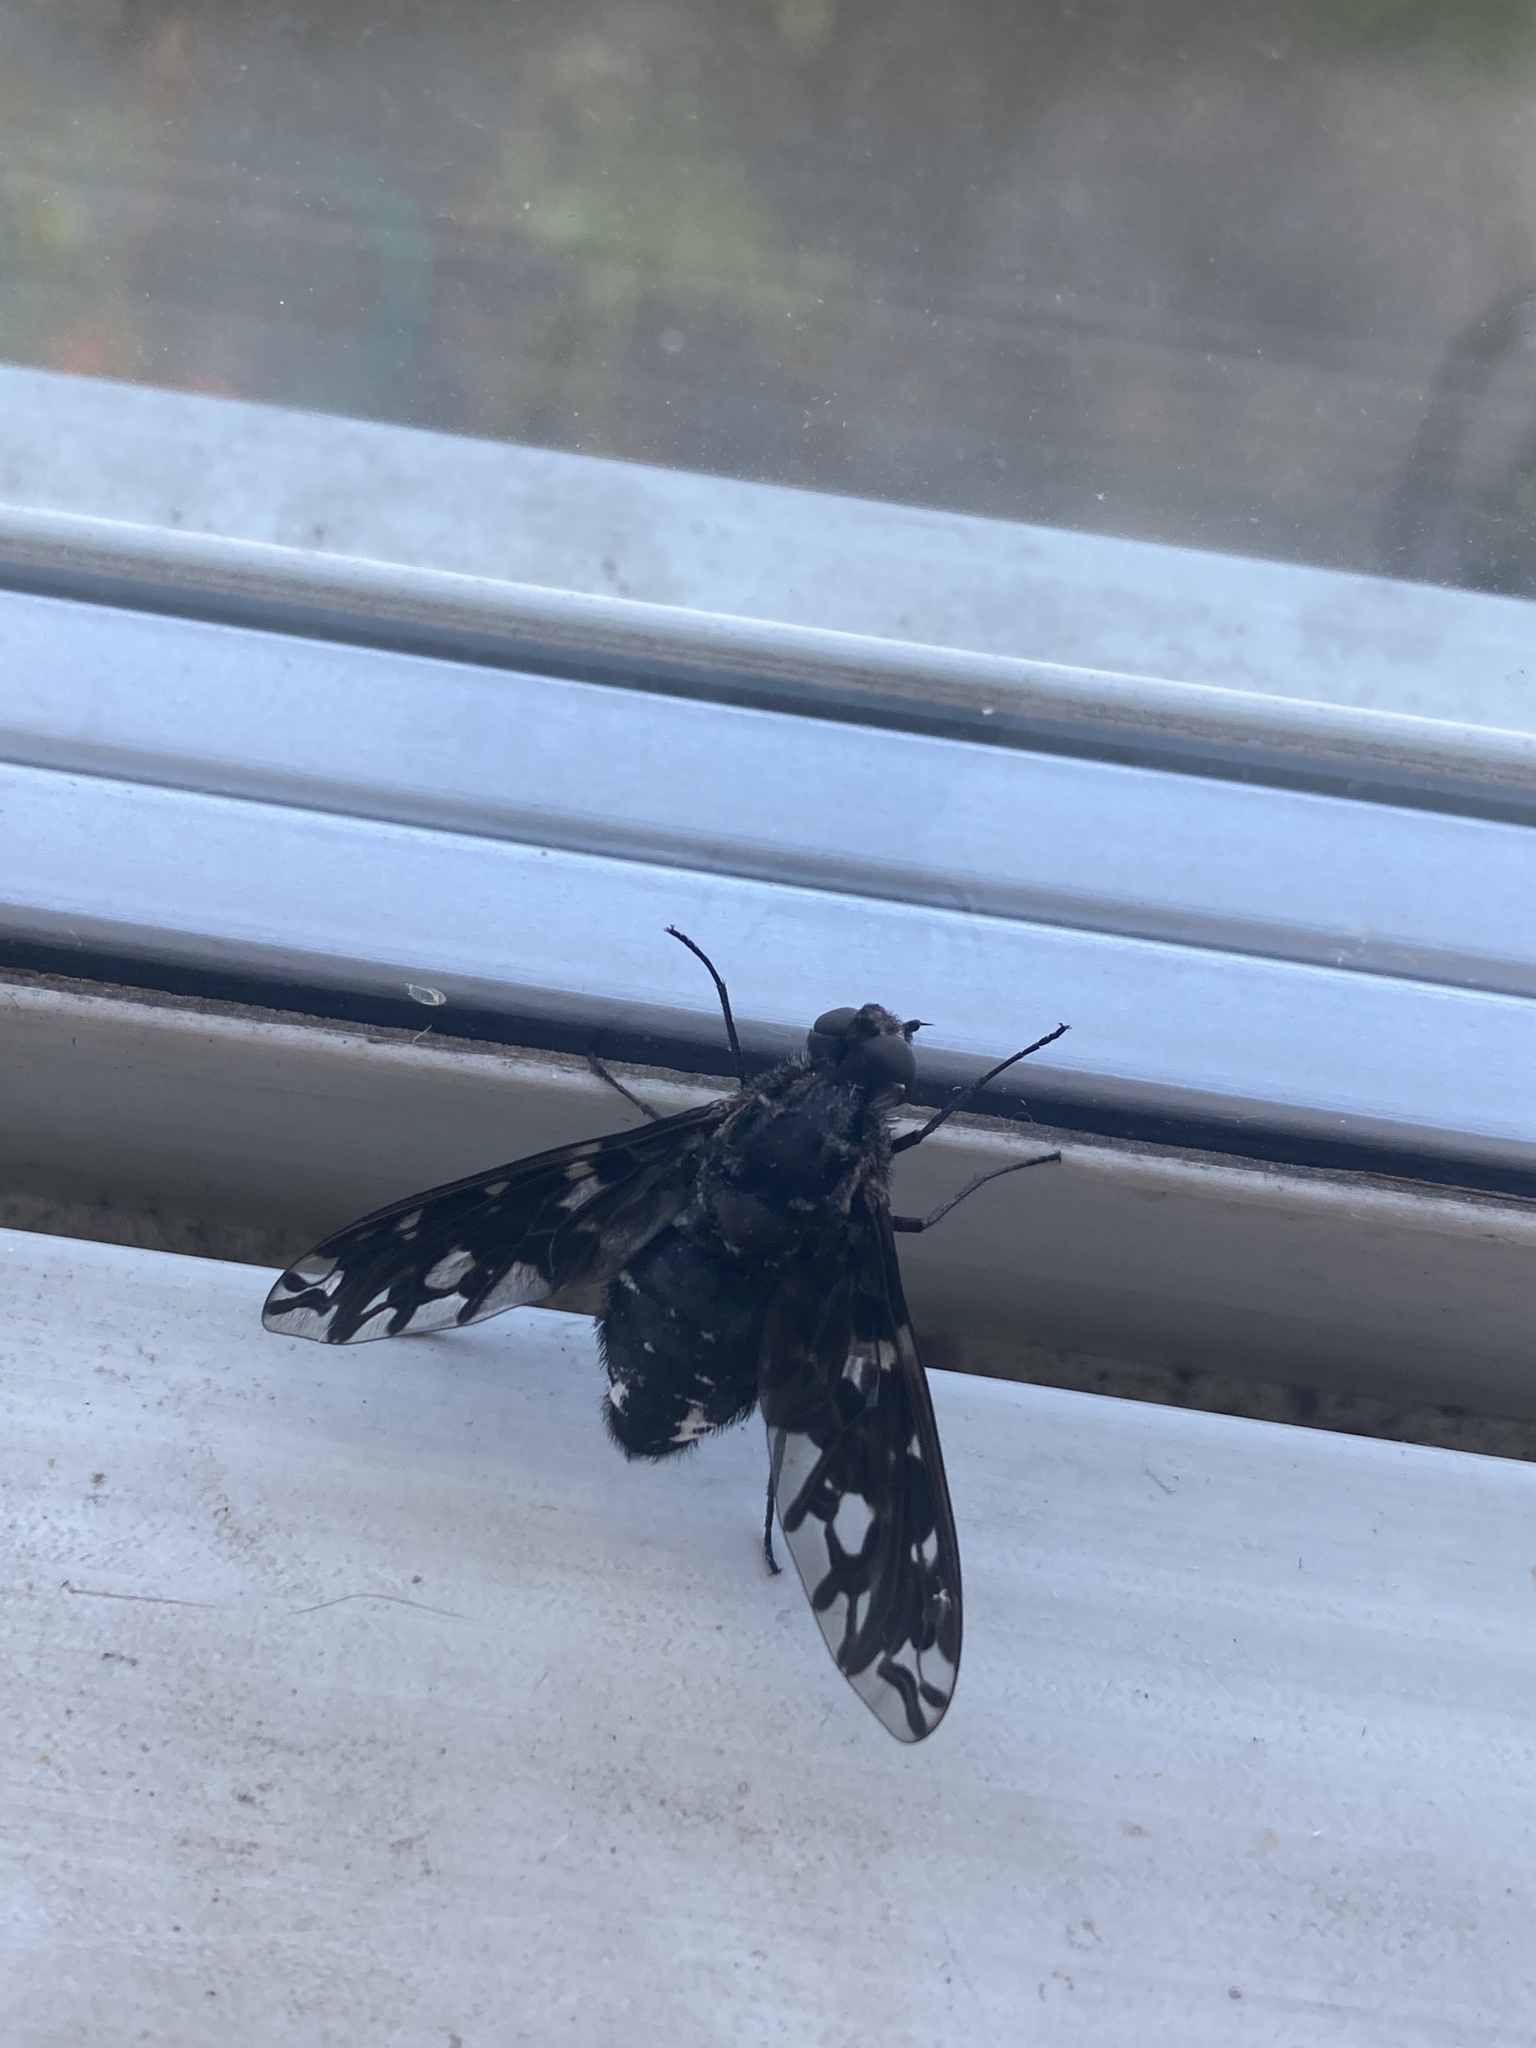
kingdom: Animalia
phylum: Arthropoda
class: Insecta
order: Diptera
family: Bombyliidae
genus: Xenox
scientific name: Xenox tigrinus
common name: Tiger bee fly
